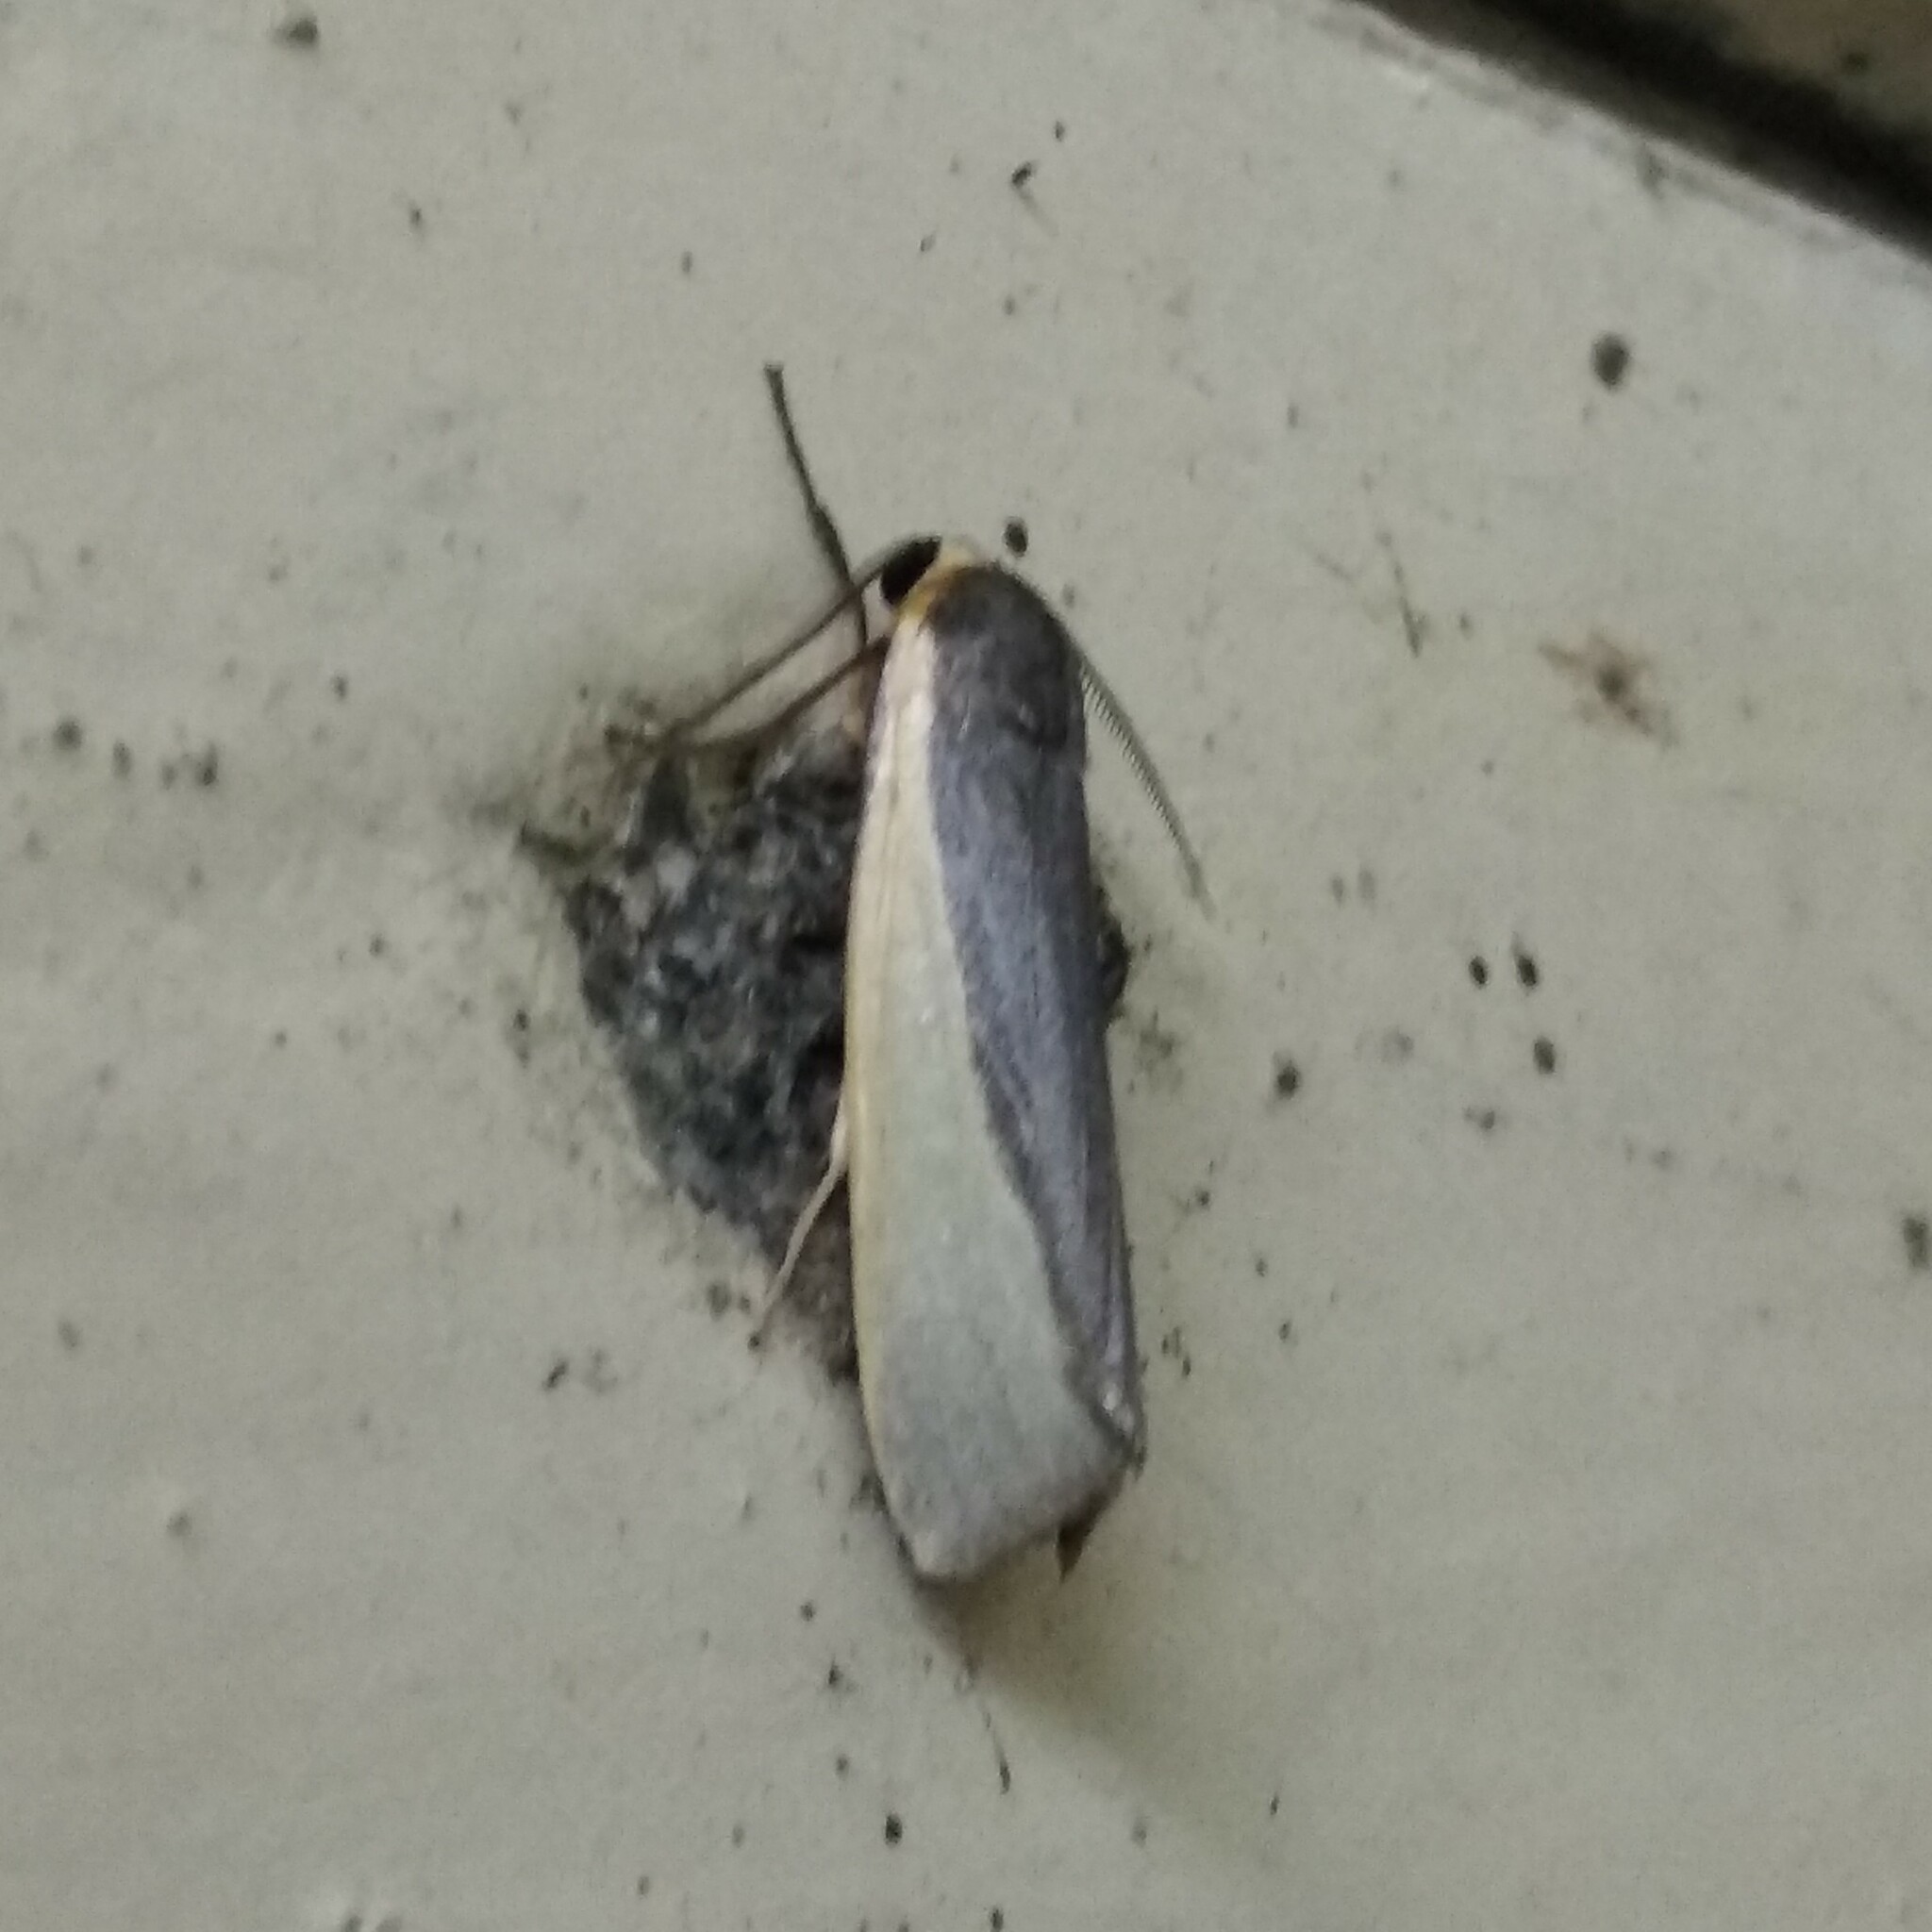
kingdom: Animalia
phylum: Arthropoda
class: Insecta
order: Lepidoptera
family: Erebidae
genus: Hesudra
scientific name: Hesudra divisa
